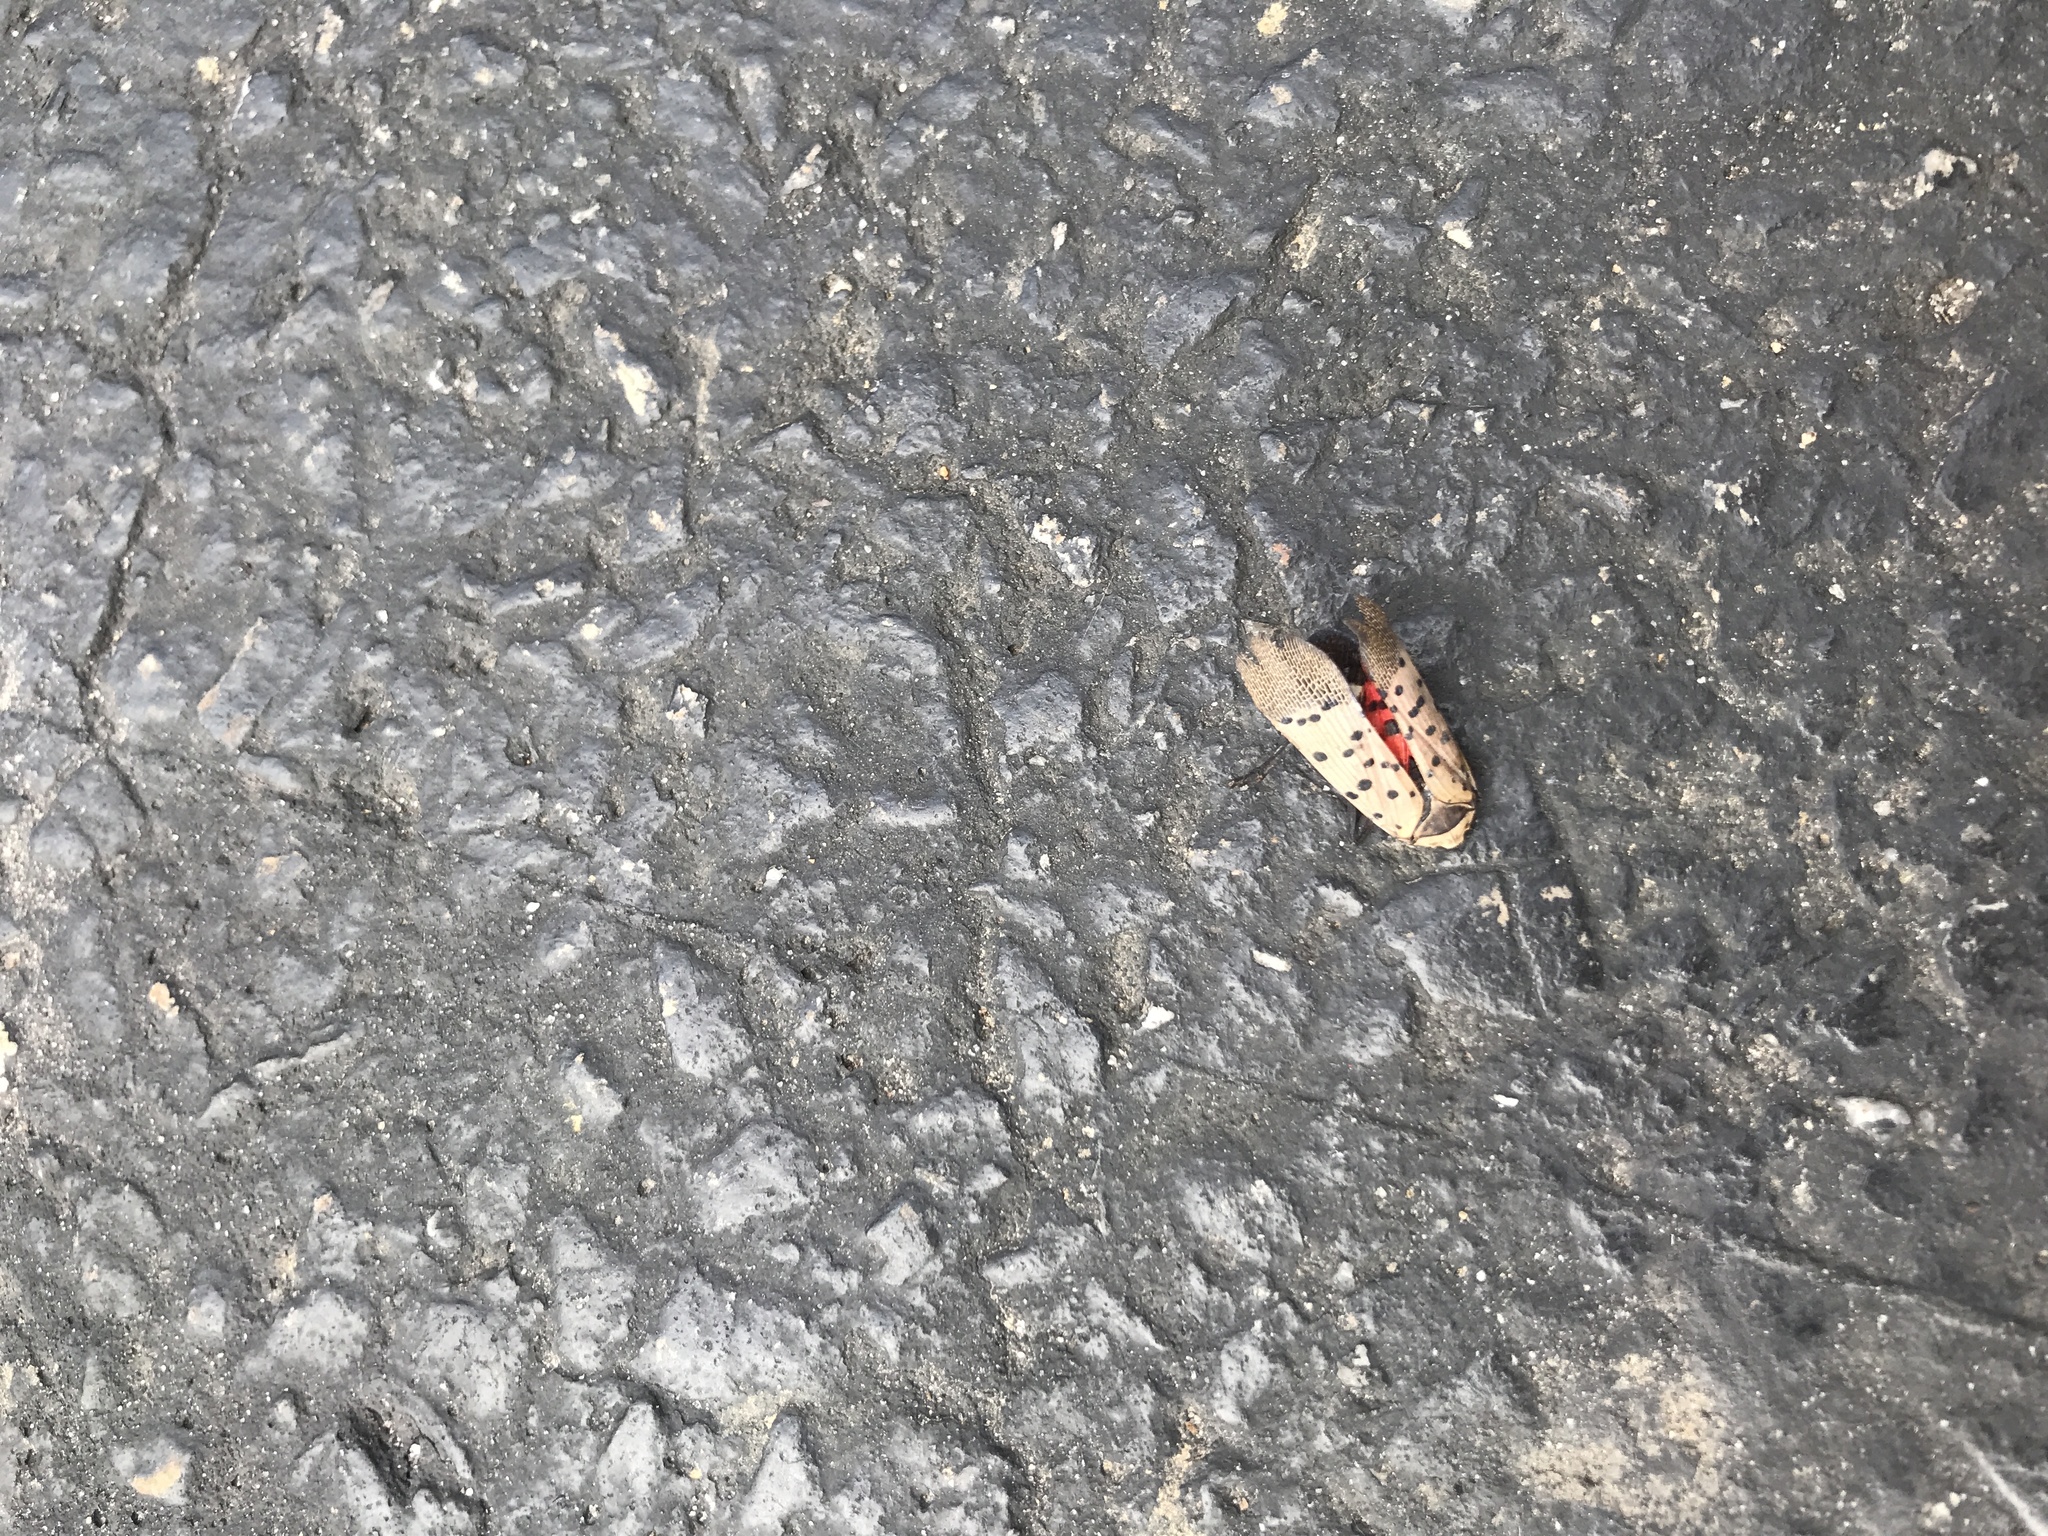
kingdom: Animalia
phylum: Arthropoda
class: Insecta
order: Hemiptera
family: Fulgoridae
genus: Lycorma
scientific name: Lycorma delicatula
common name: Spotted lanternfly
